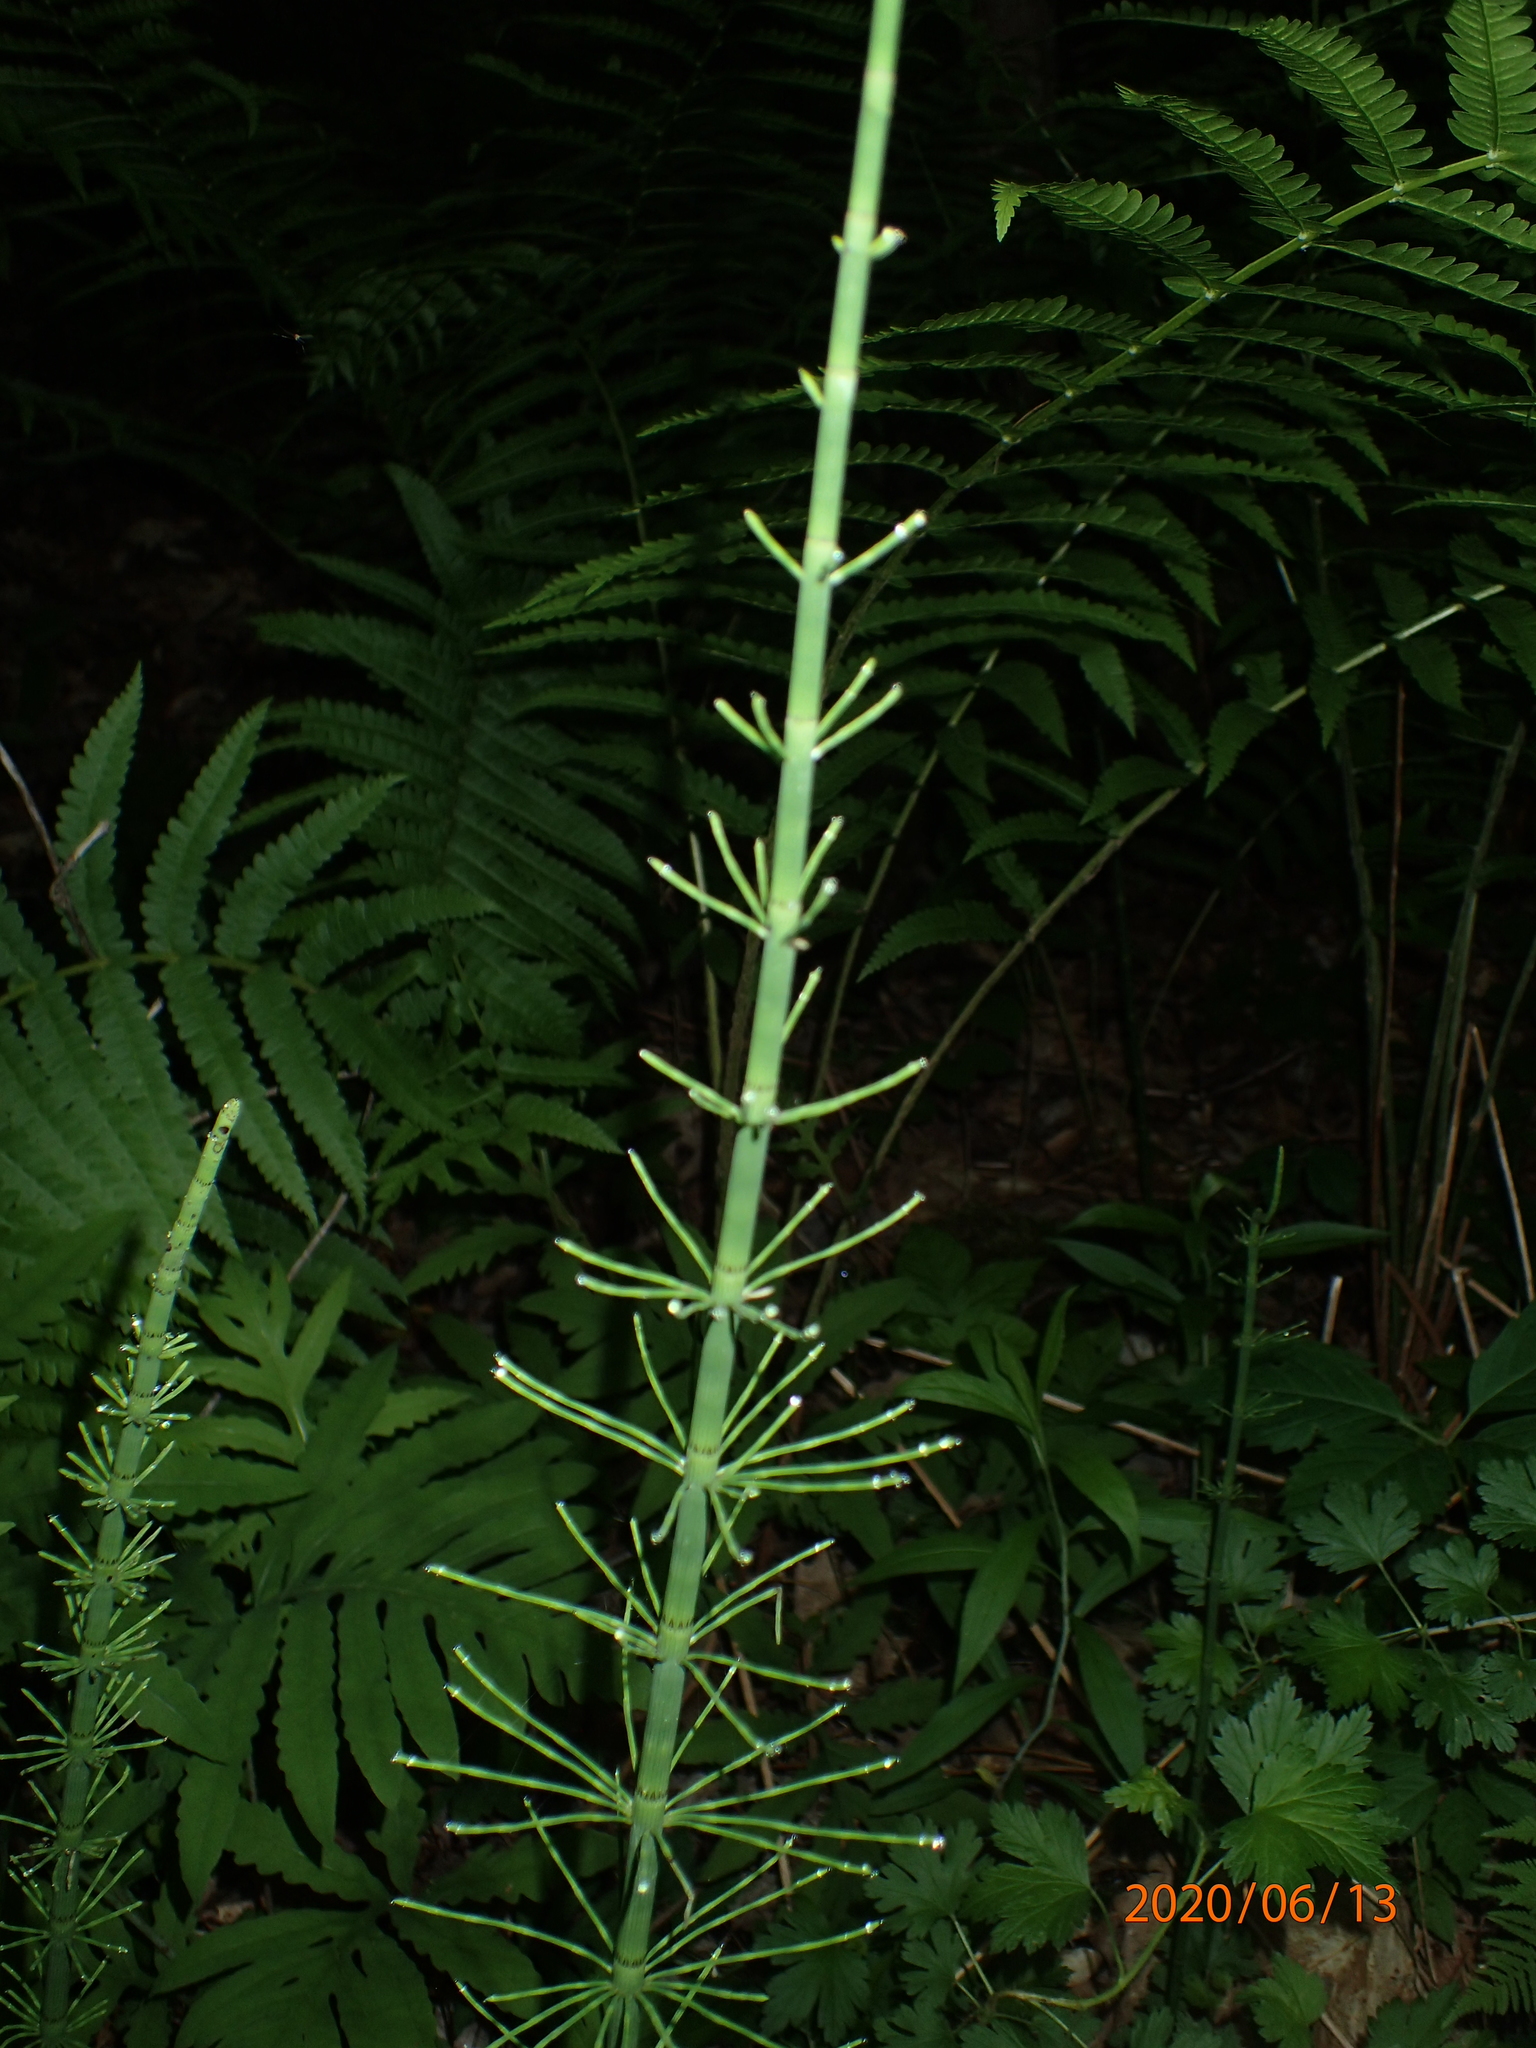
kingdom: Plantae
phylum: Tracheophyta
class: Polypodiopsida
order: Equisetales
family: Equisetaceae
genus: Equisetum
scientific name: Equisetum fluviatile
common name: Water horsetail
